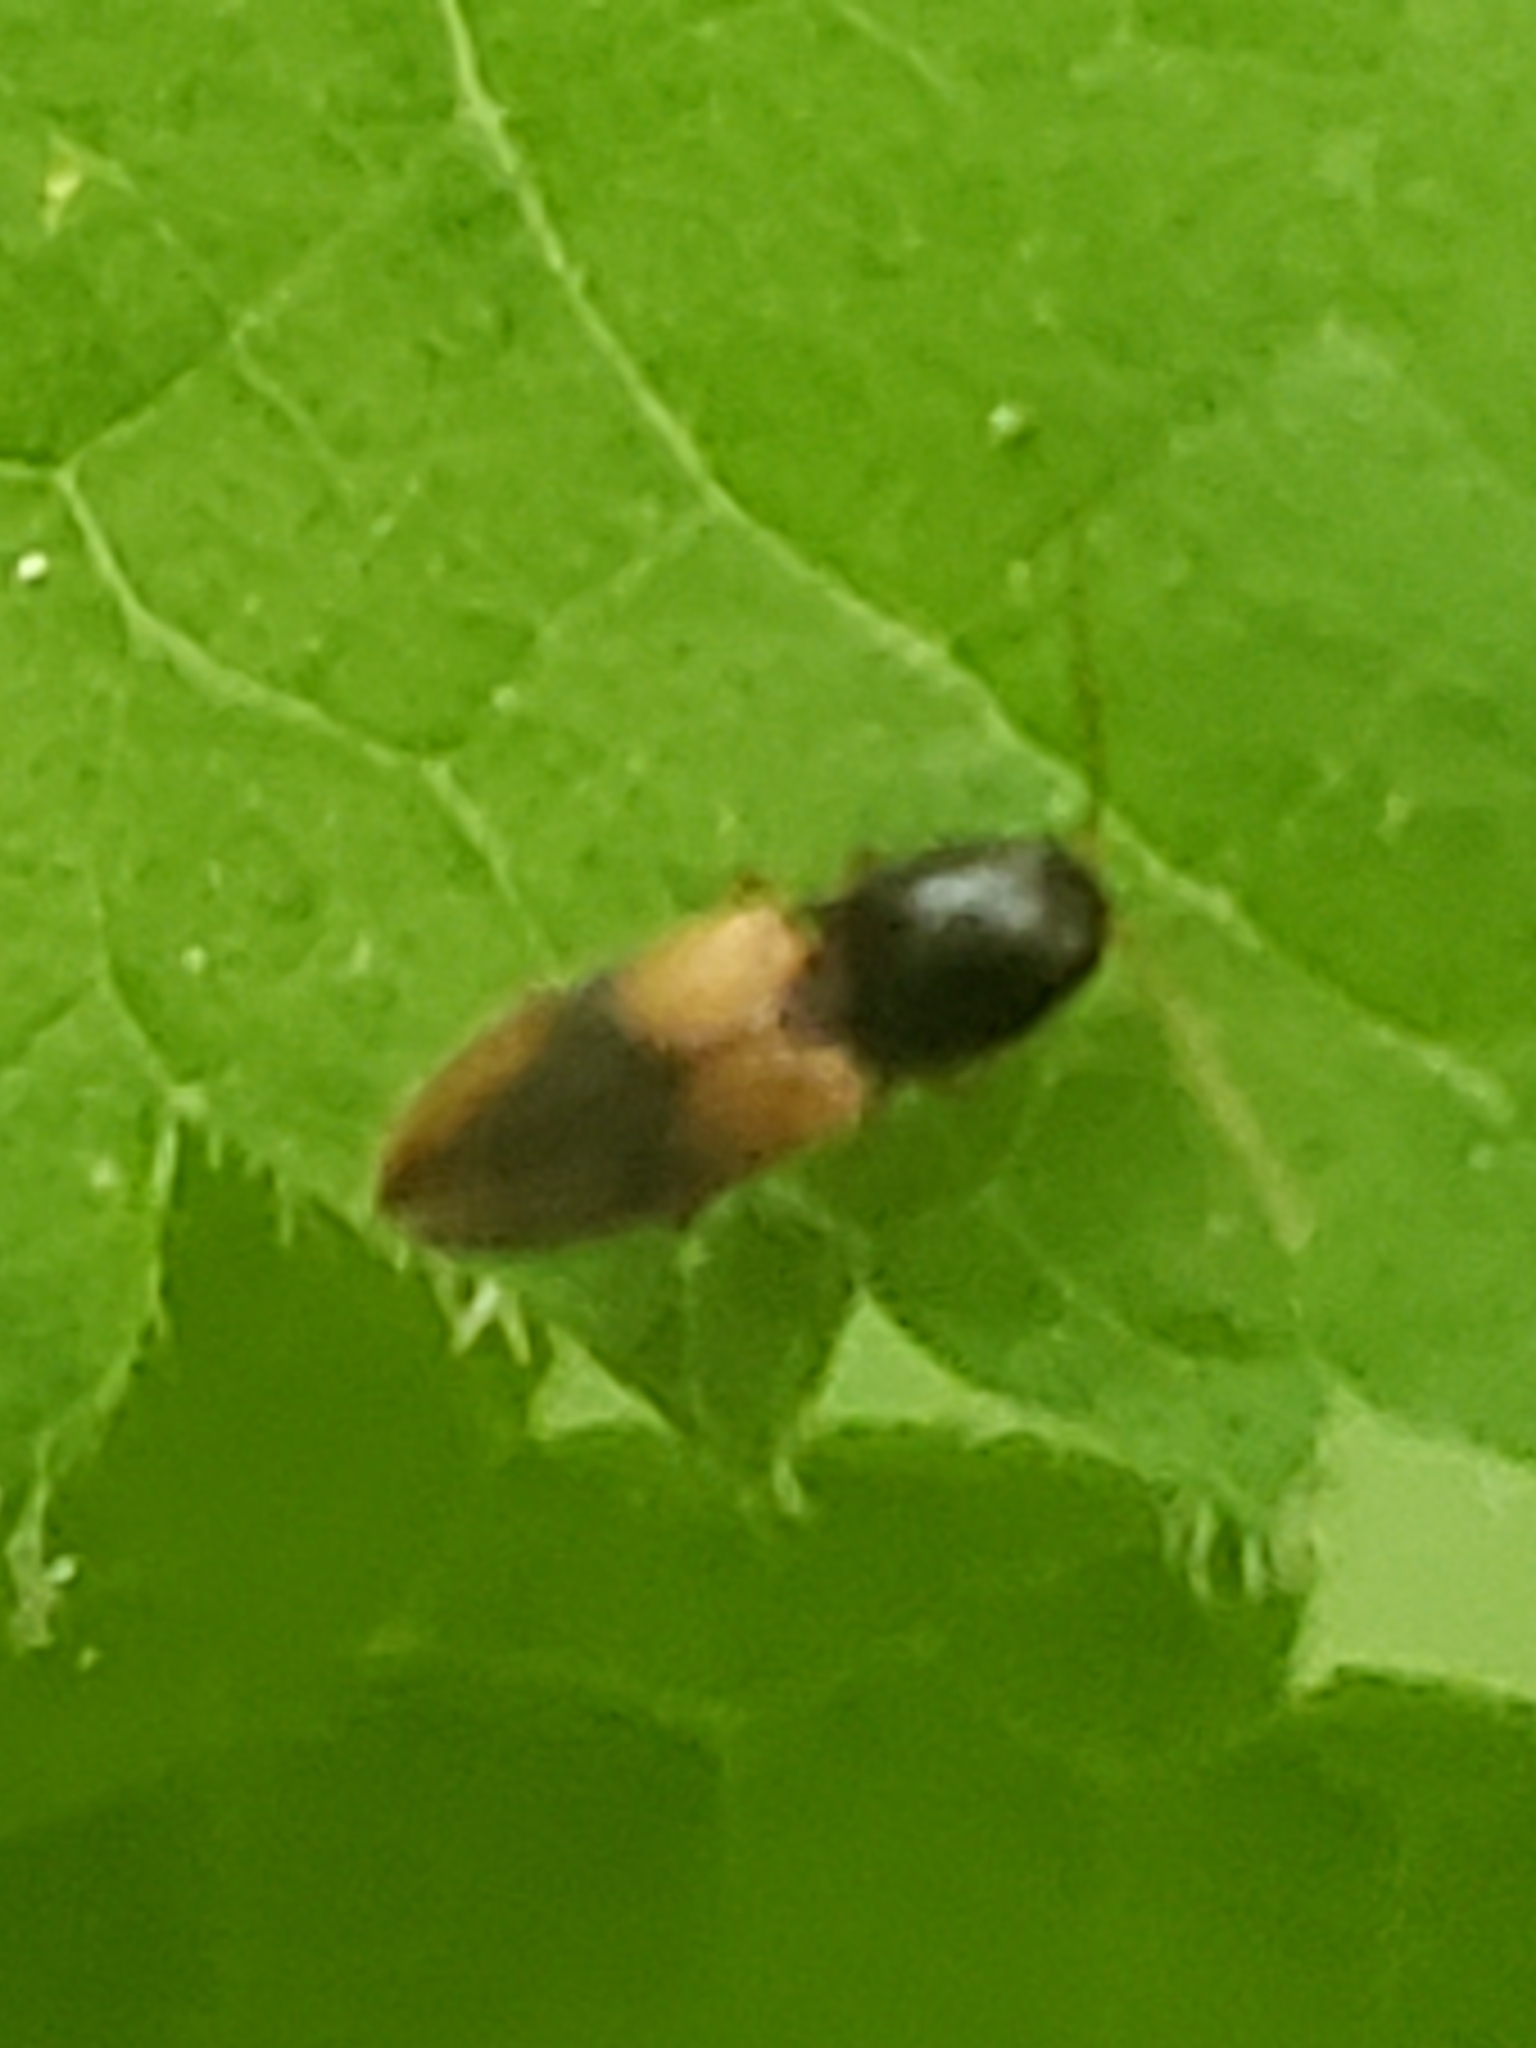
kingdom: Animalia
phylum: Arthropoda
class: Insecta
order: Coleoptera
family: Elateridae
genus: Horistonotus
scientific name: Horistonotus curiatus
